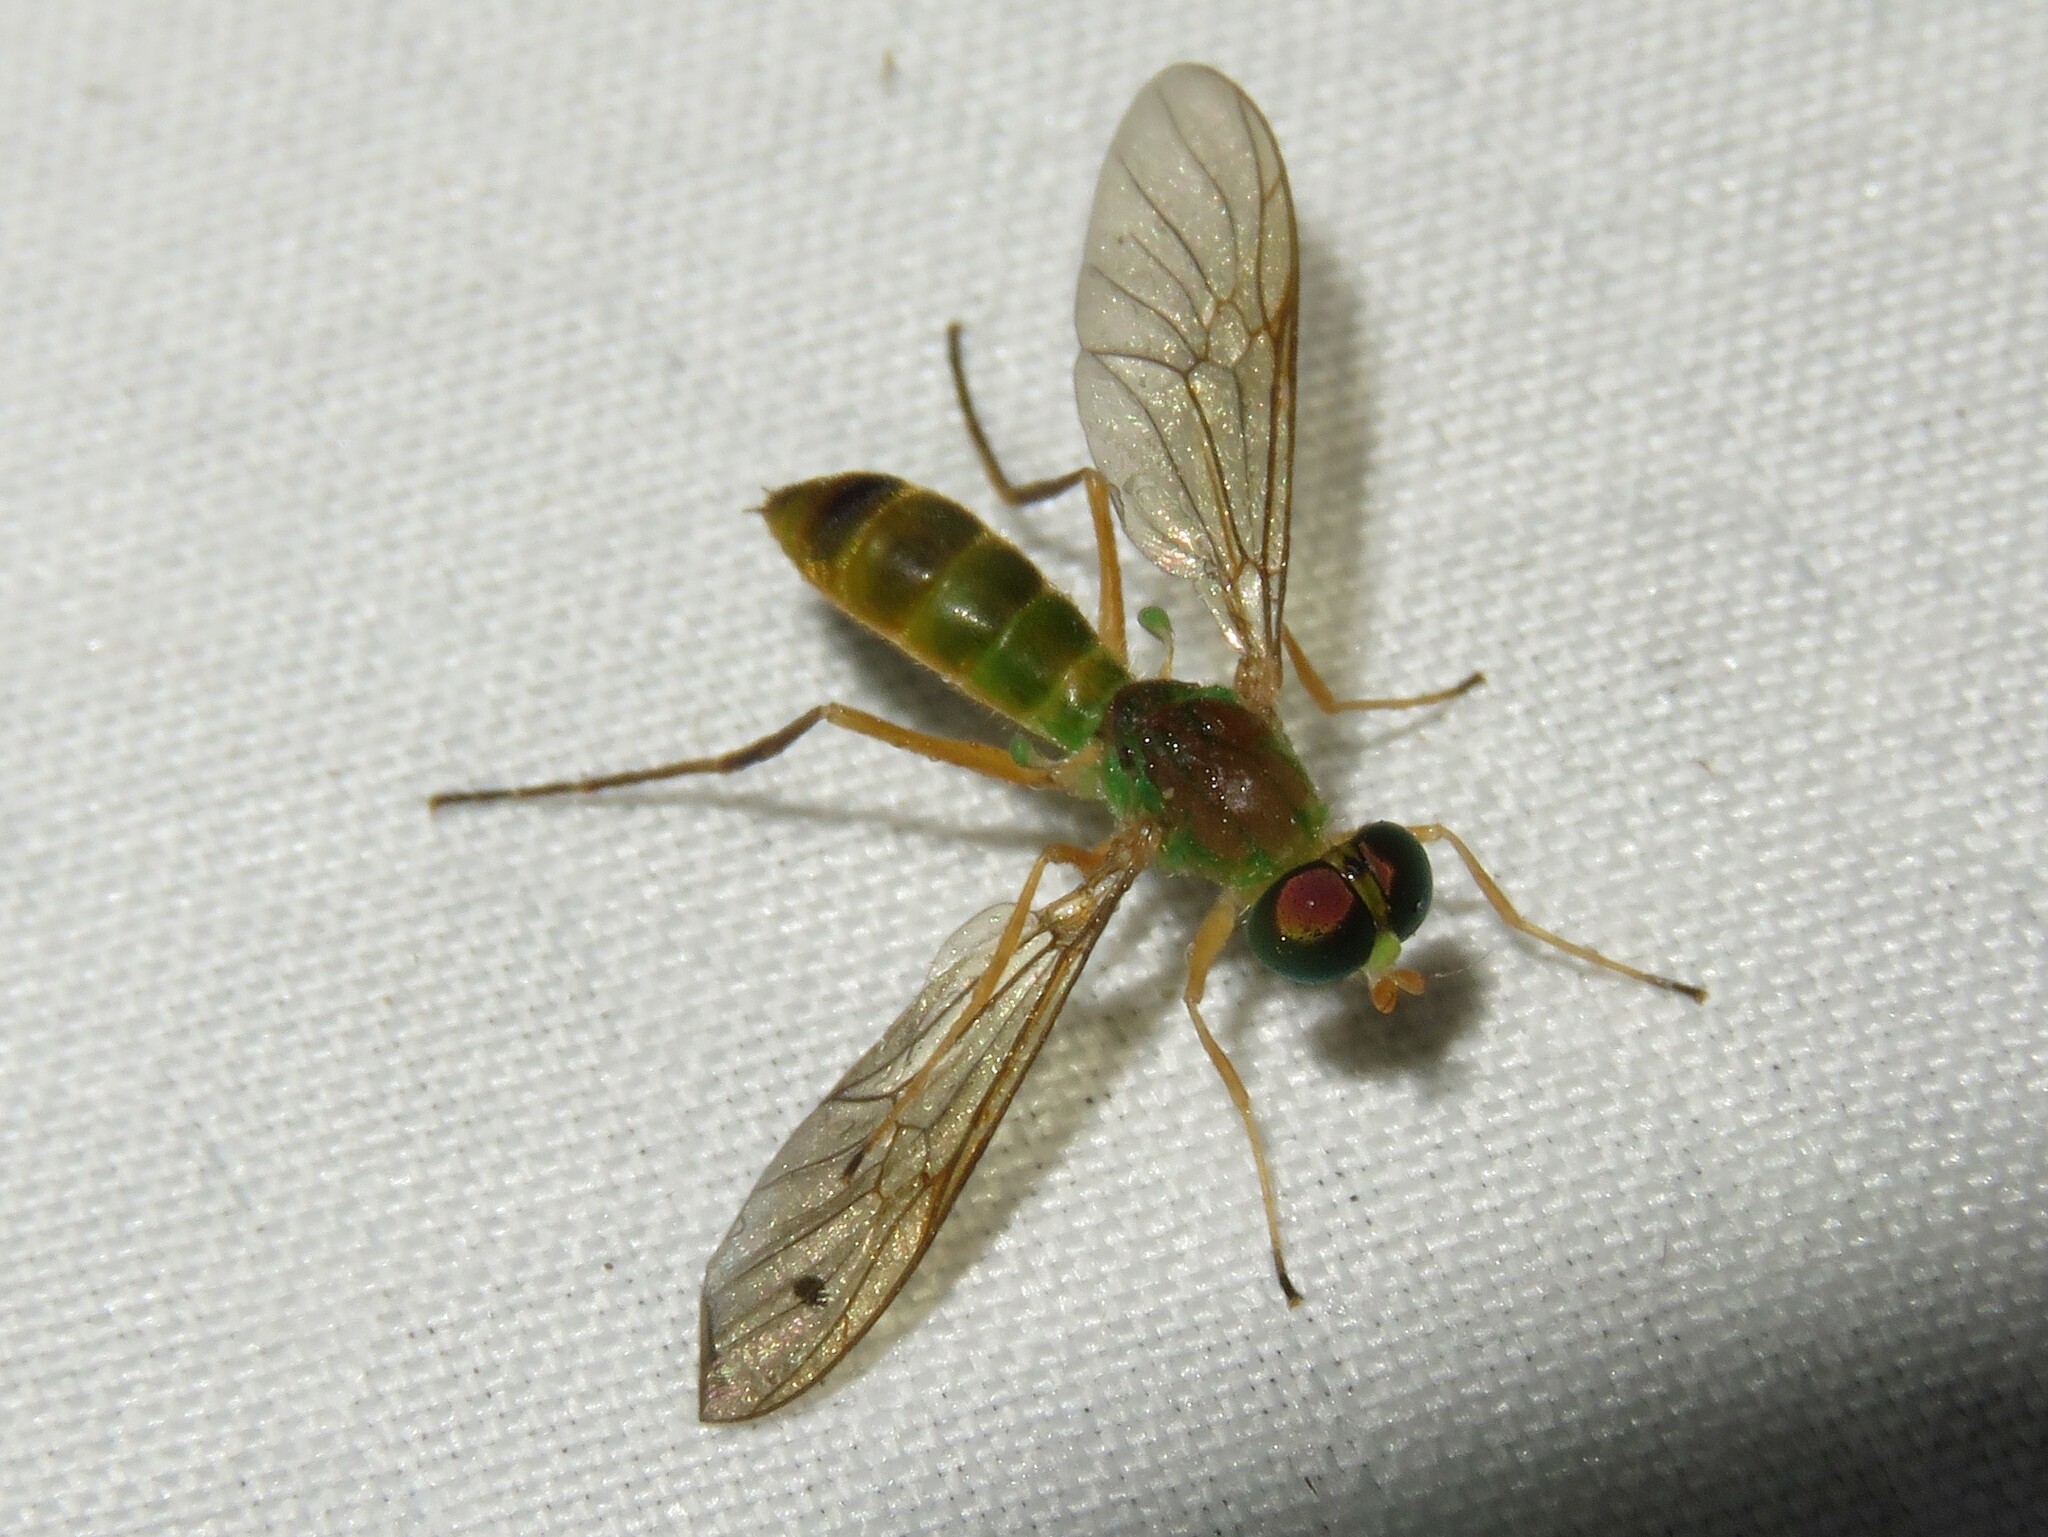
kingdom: Animalia
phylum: Arthropoda
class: Insecta
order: Diptera
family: Stratiomyidae
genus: Ptecticus
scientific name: Ptecticus trivittatus
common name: Compost fly
